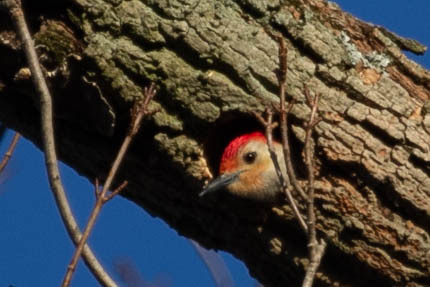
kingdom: Animalia
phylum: Chordata
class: Aves
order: Piciformes
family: Picidae
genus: Melanerpes
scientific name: Melanerpes carolinus
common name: Red-bellied woodpecker
